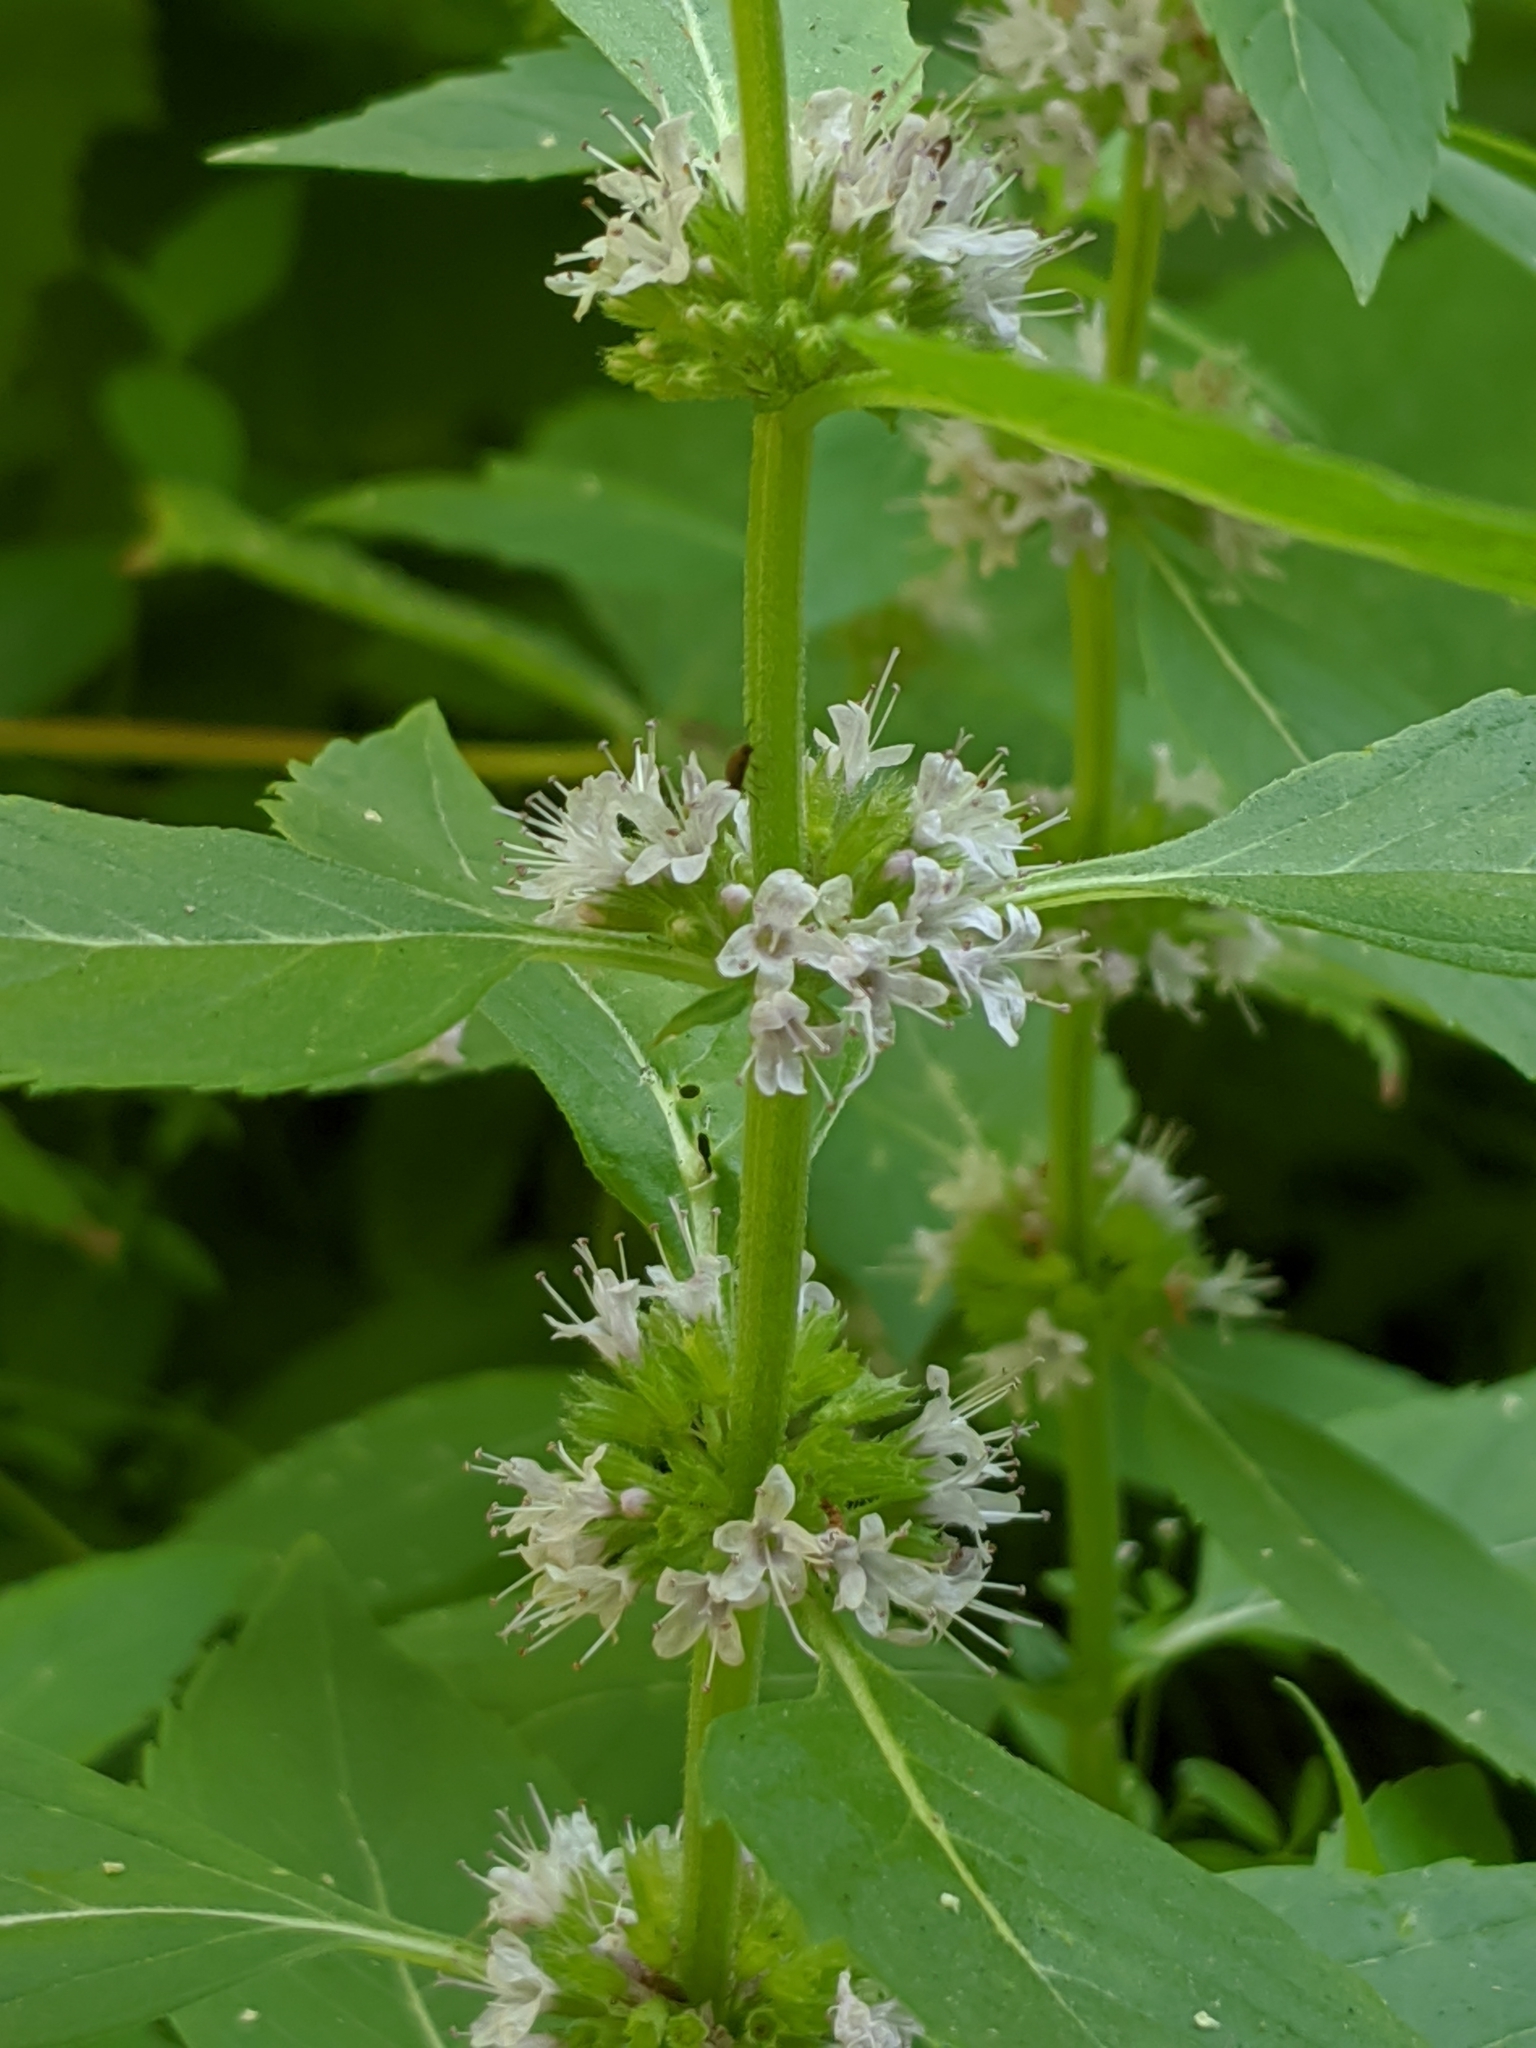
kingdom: Plantae
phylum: Tracheophyta
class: Magnoliopsida
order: Lamiales
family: Lamiaceae
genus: Mentha
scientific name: Mentha canadensis
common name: American corn mint
